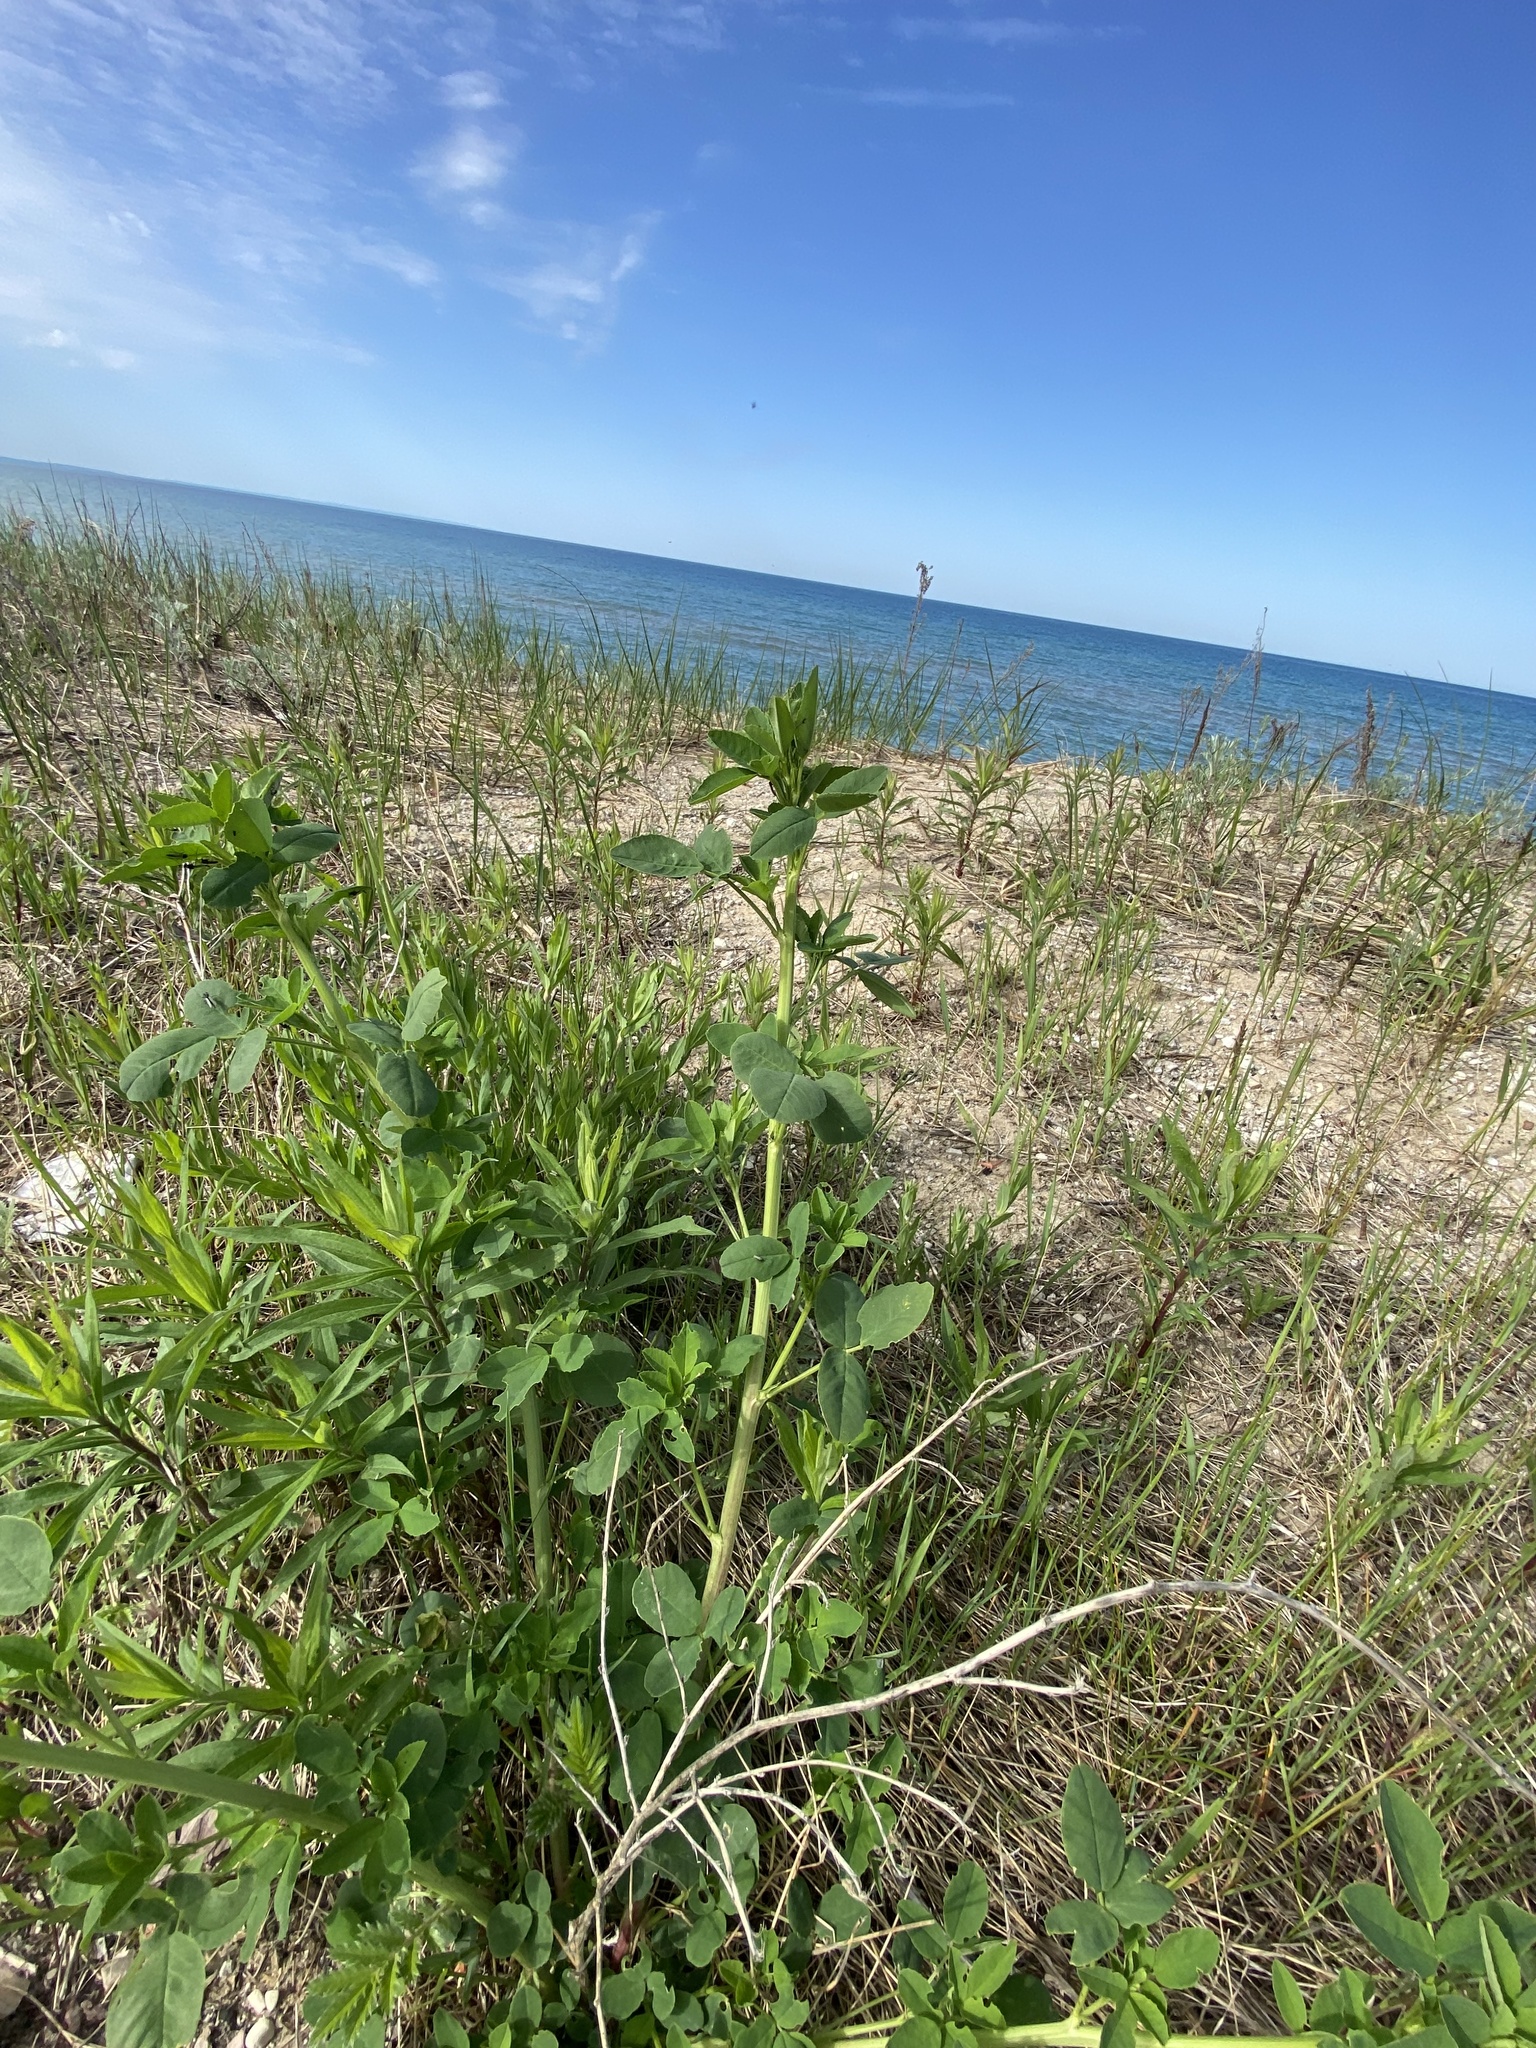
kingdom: Plantae
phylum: Tracheophyta
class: Magnoliopsida
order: Fabales
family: Fabaceae
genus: Melilotus
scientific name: Melilotus albus
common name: White melilot
